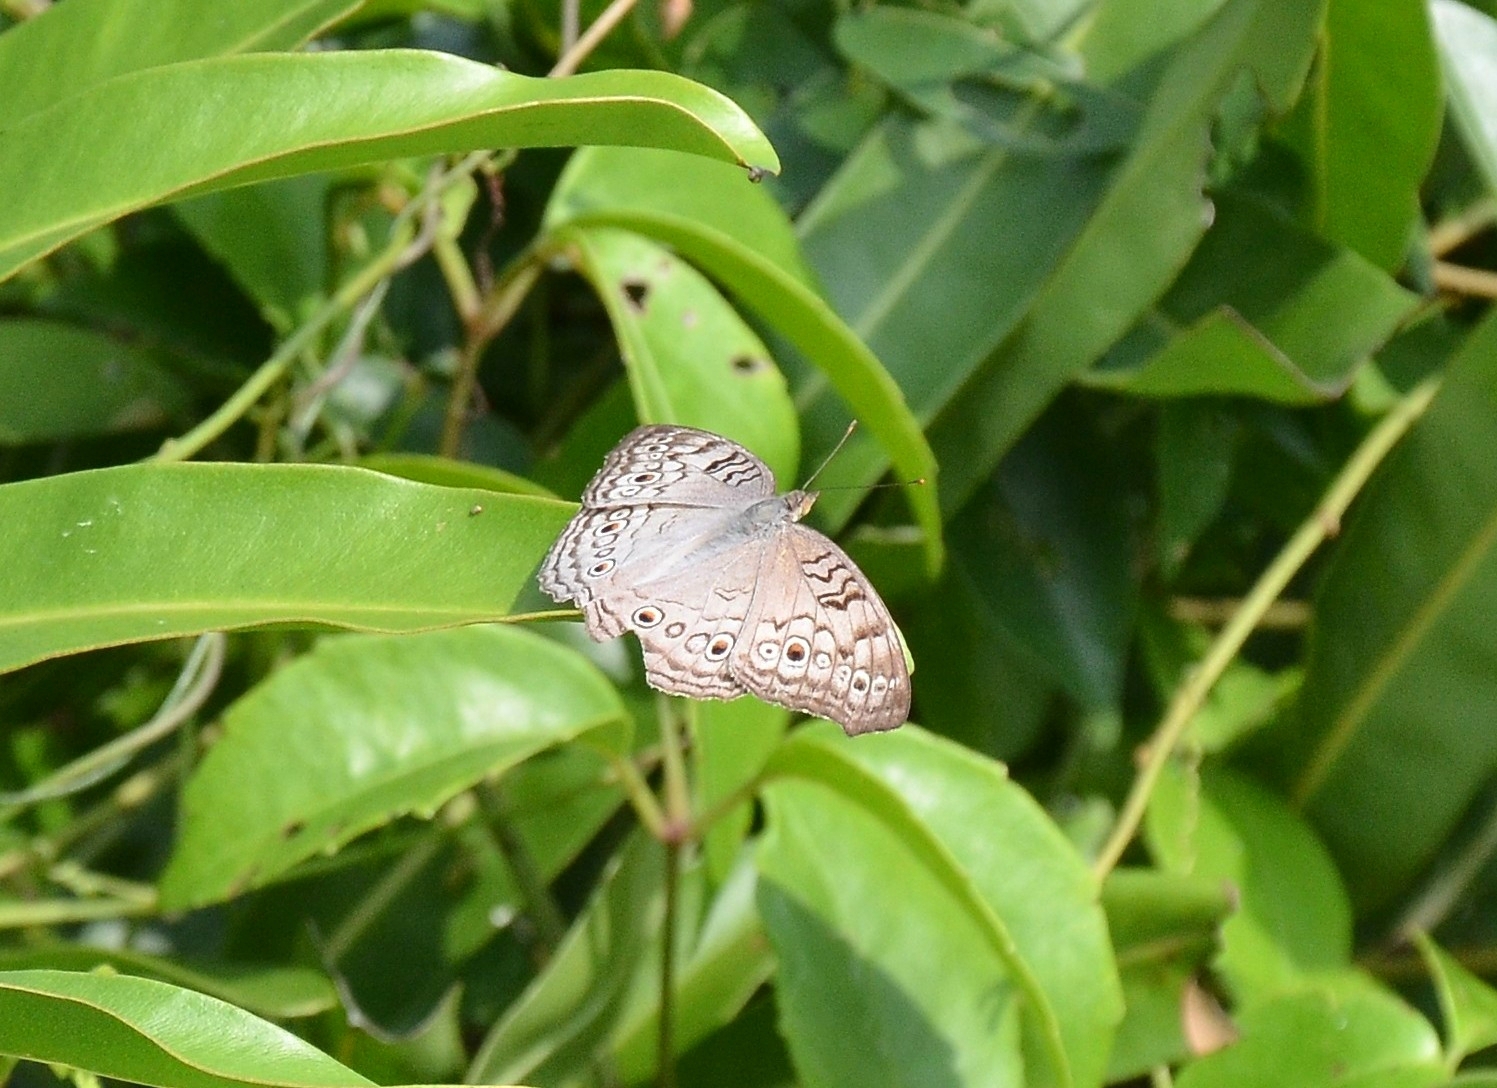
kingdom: Animalia
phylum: Arthropoda
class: Insecta
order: Lepidoptera
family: Nymphalidae
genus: Junonia
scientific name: Junonia atlites
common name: Grey pansy
